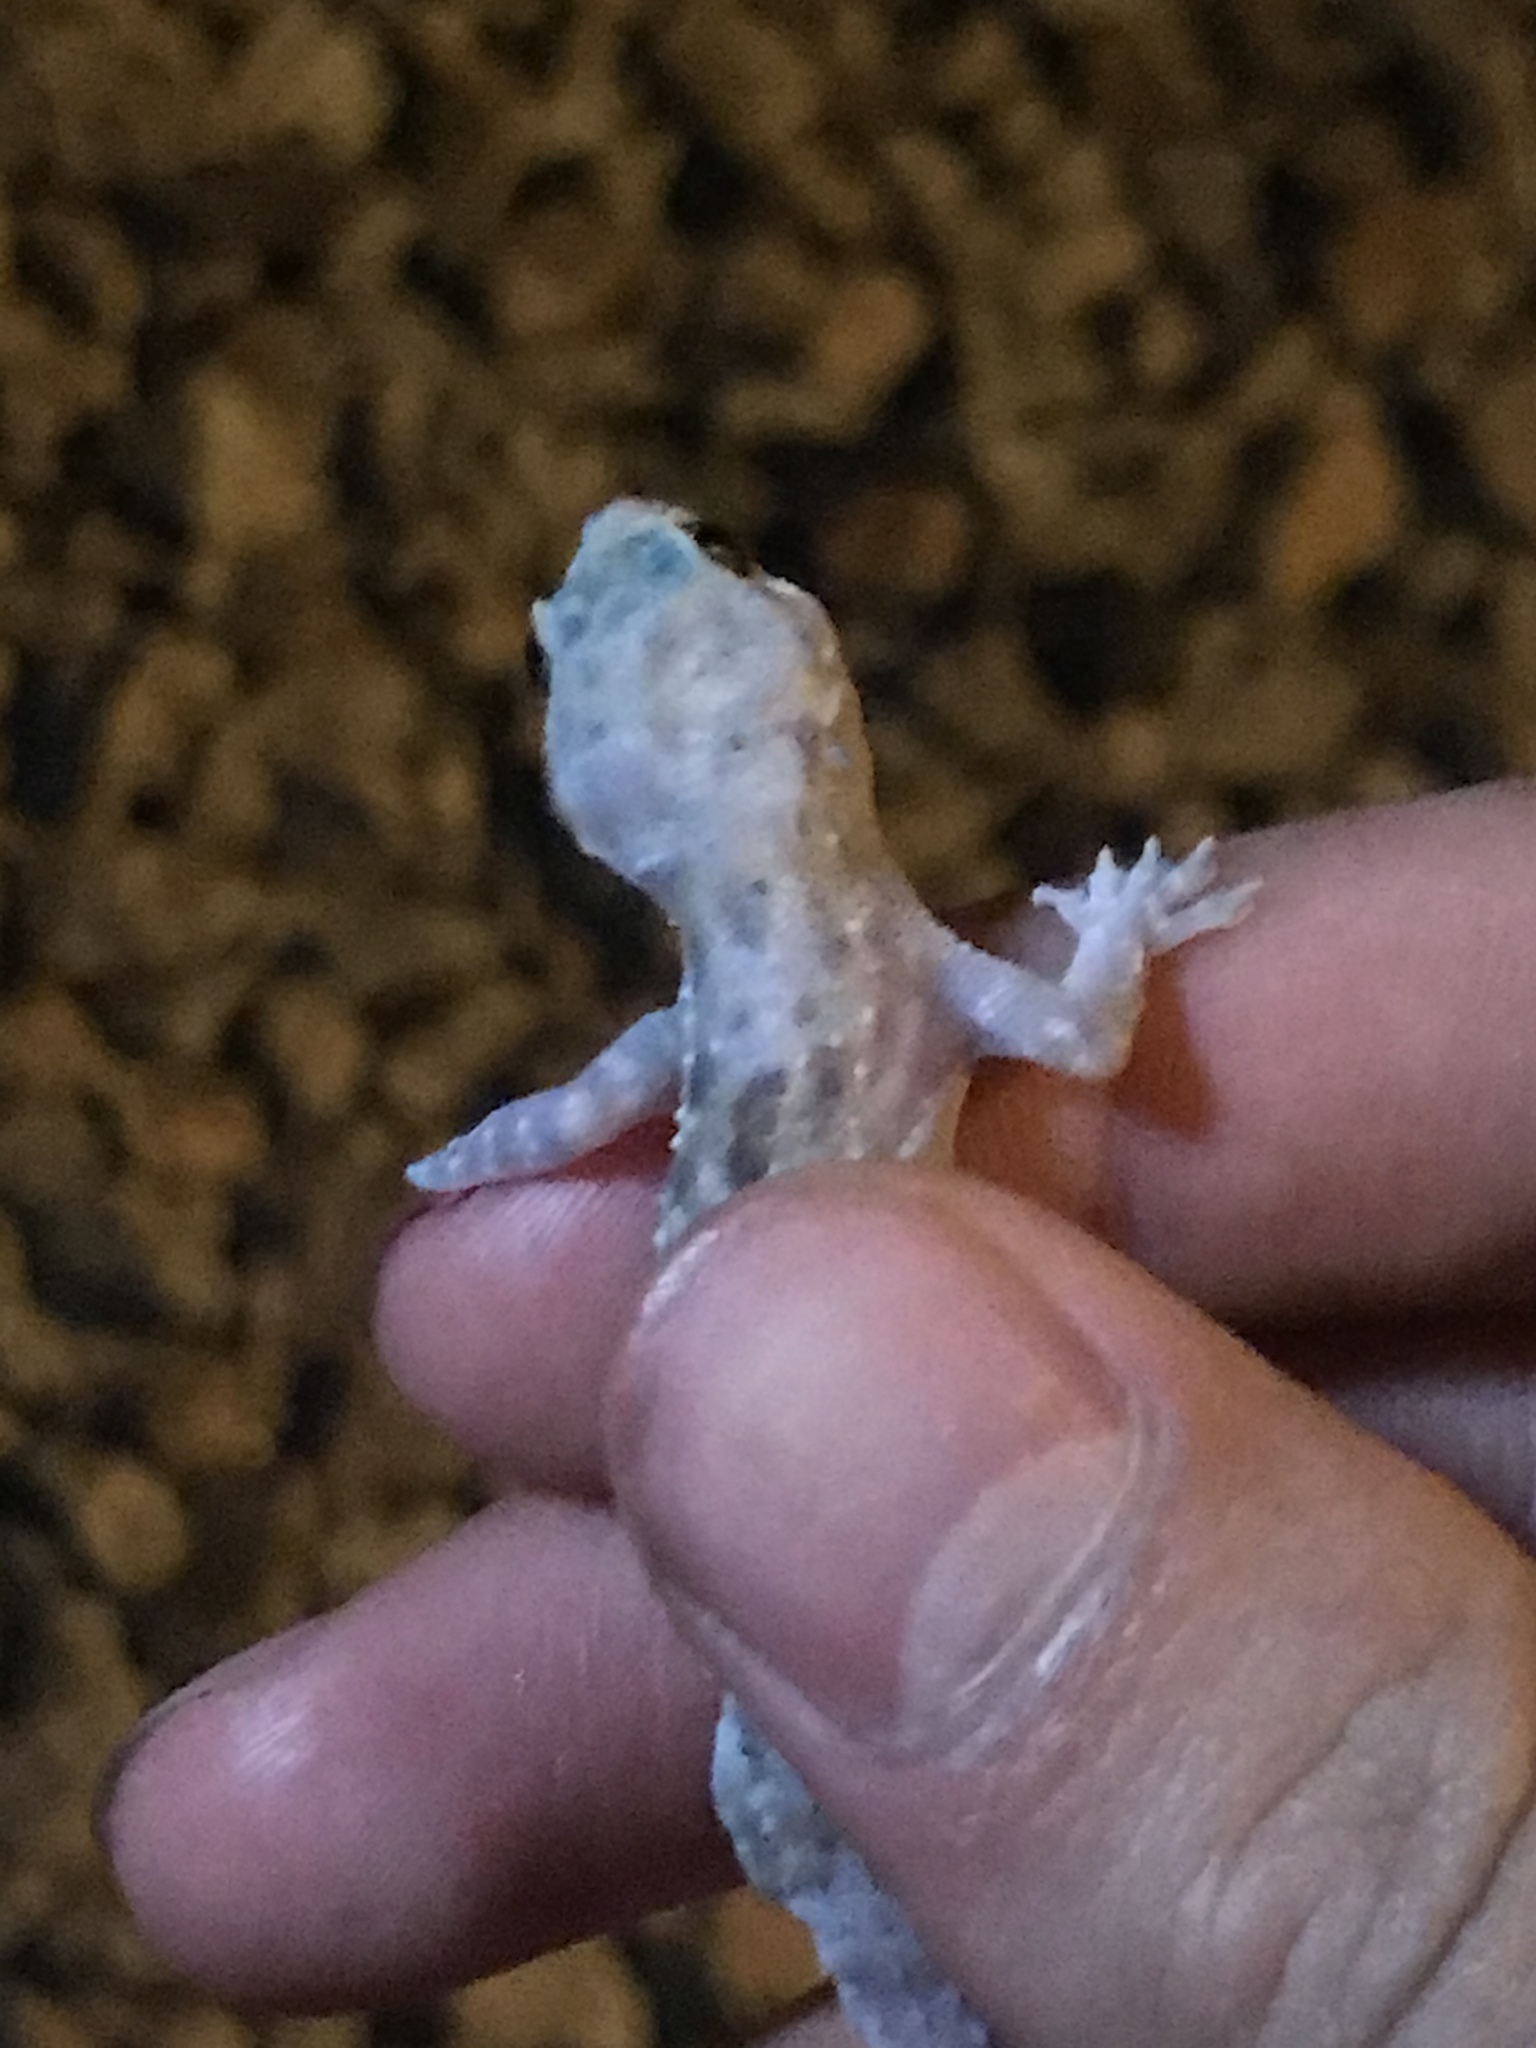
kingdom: Animalia
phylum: Chordata
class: Squamata
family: Gekkonidae
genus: Hemidactylus
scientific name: Hemidactylus turcicus
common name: Turkish gecko
